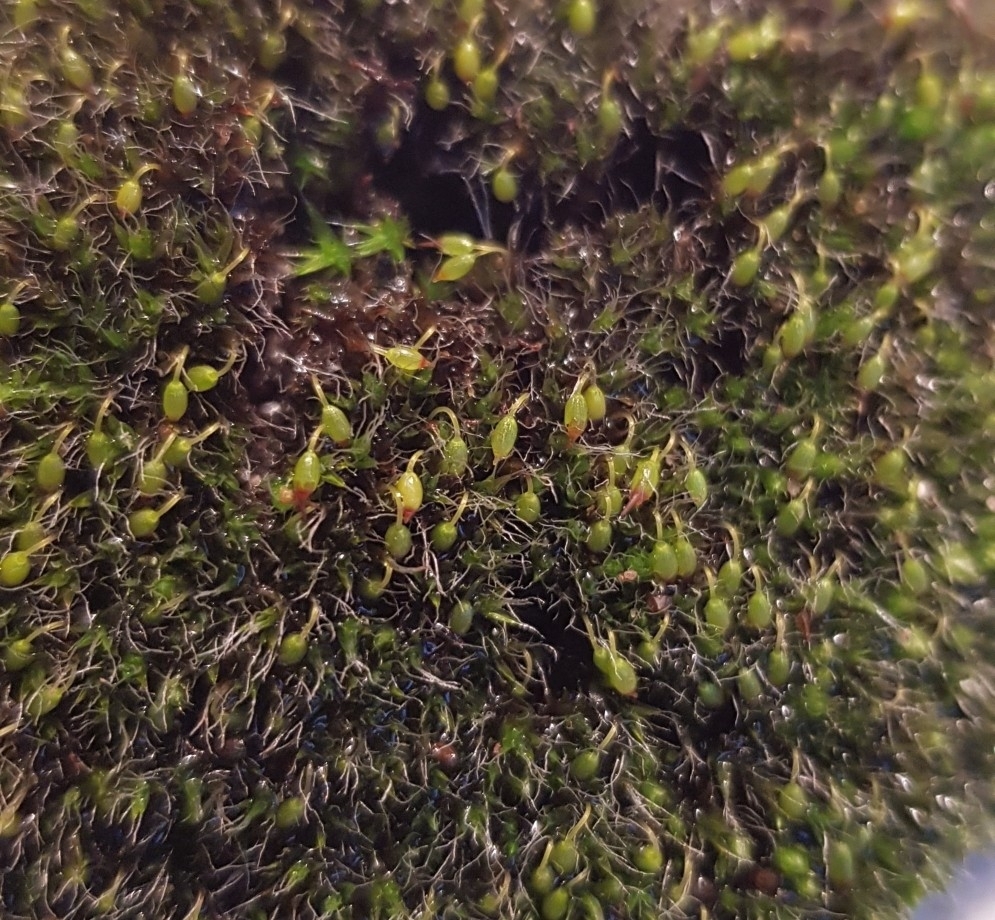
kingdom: Plantae
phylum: Bryophyta
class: Bryopsida
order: Grimmiales
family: Grimmiaceae
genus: Grimmia
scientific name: Grimmia pulvinata
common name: Grey-cushioned grimmia
